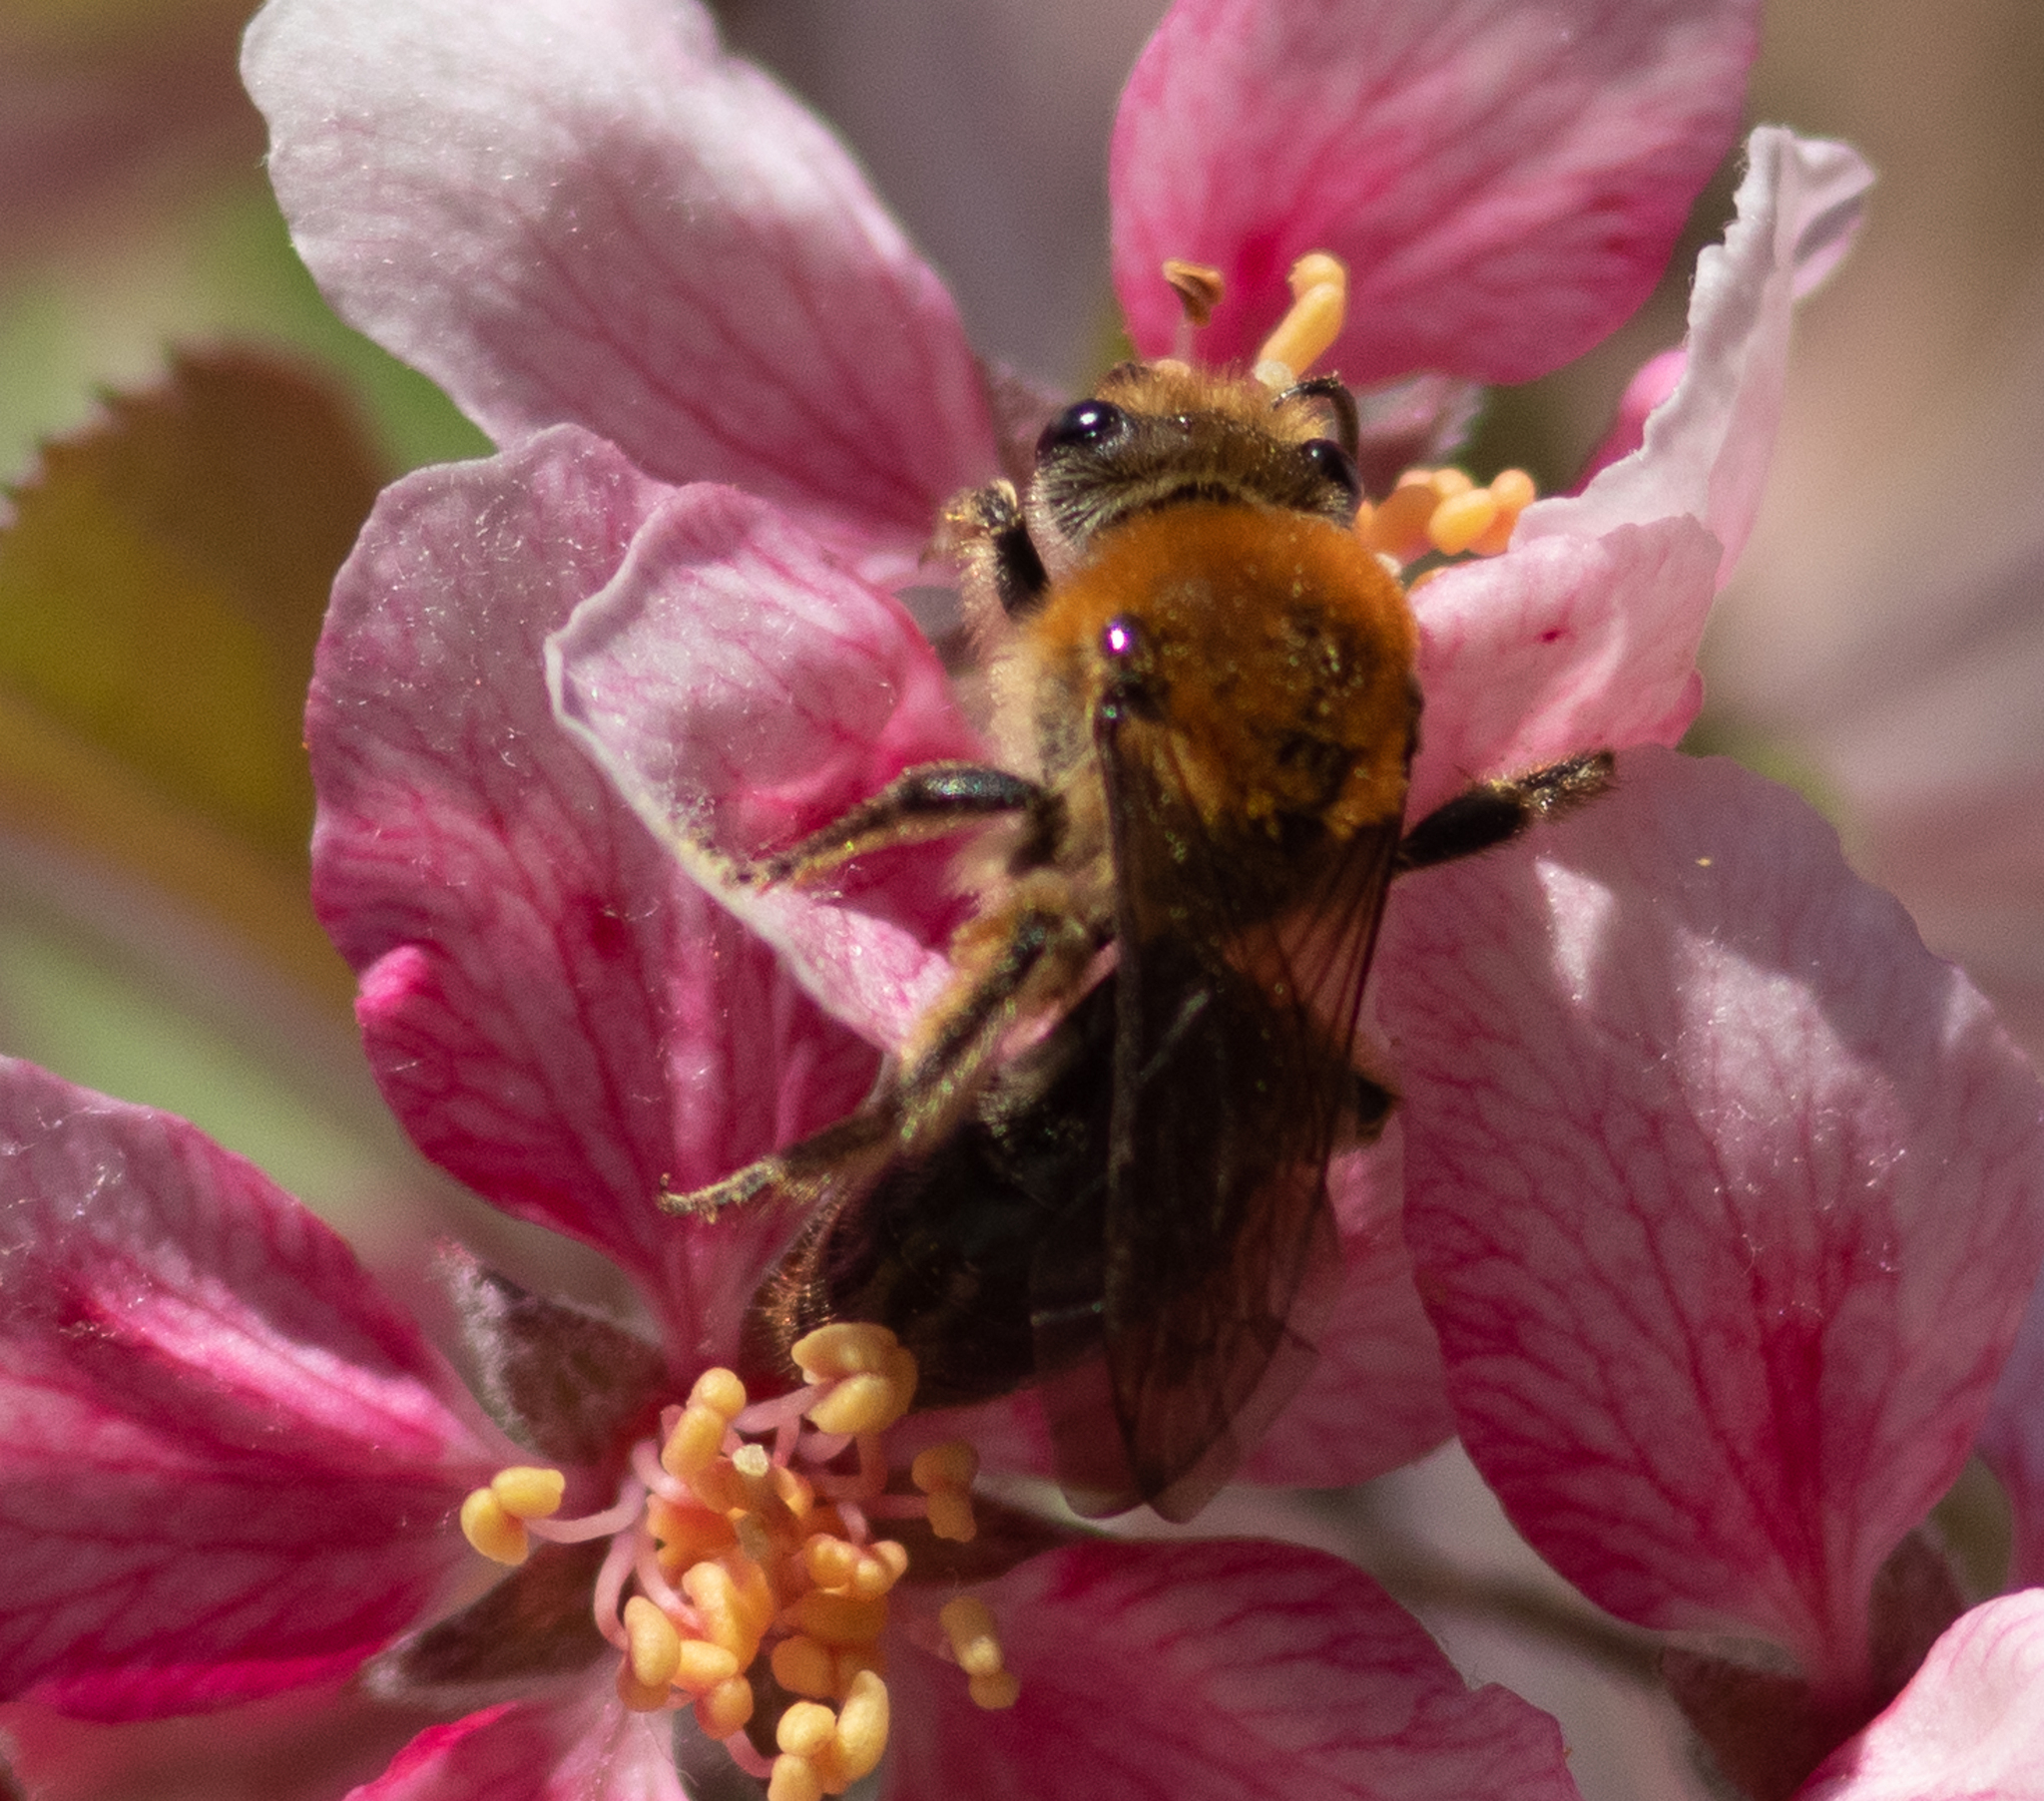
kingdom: Animalia
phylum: Arthropoda
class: Insecta
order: Hymenoptera
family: Colletidae
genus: Colletes
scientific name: Colletes thoracicus
